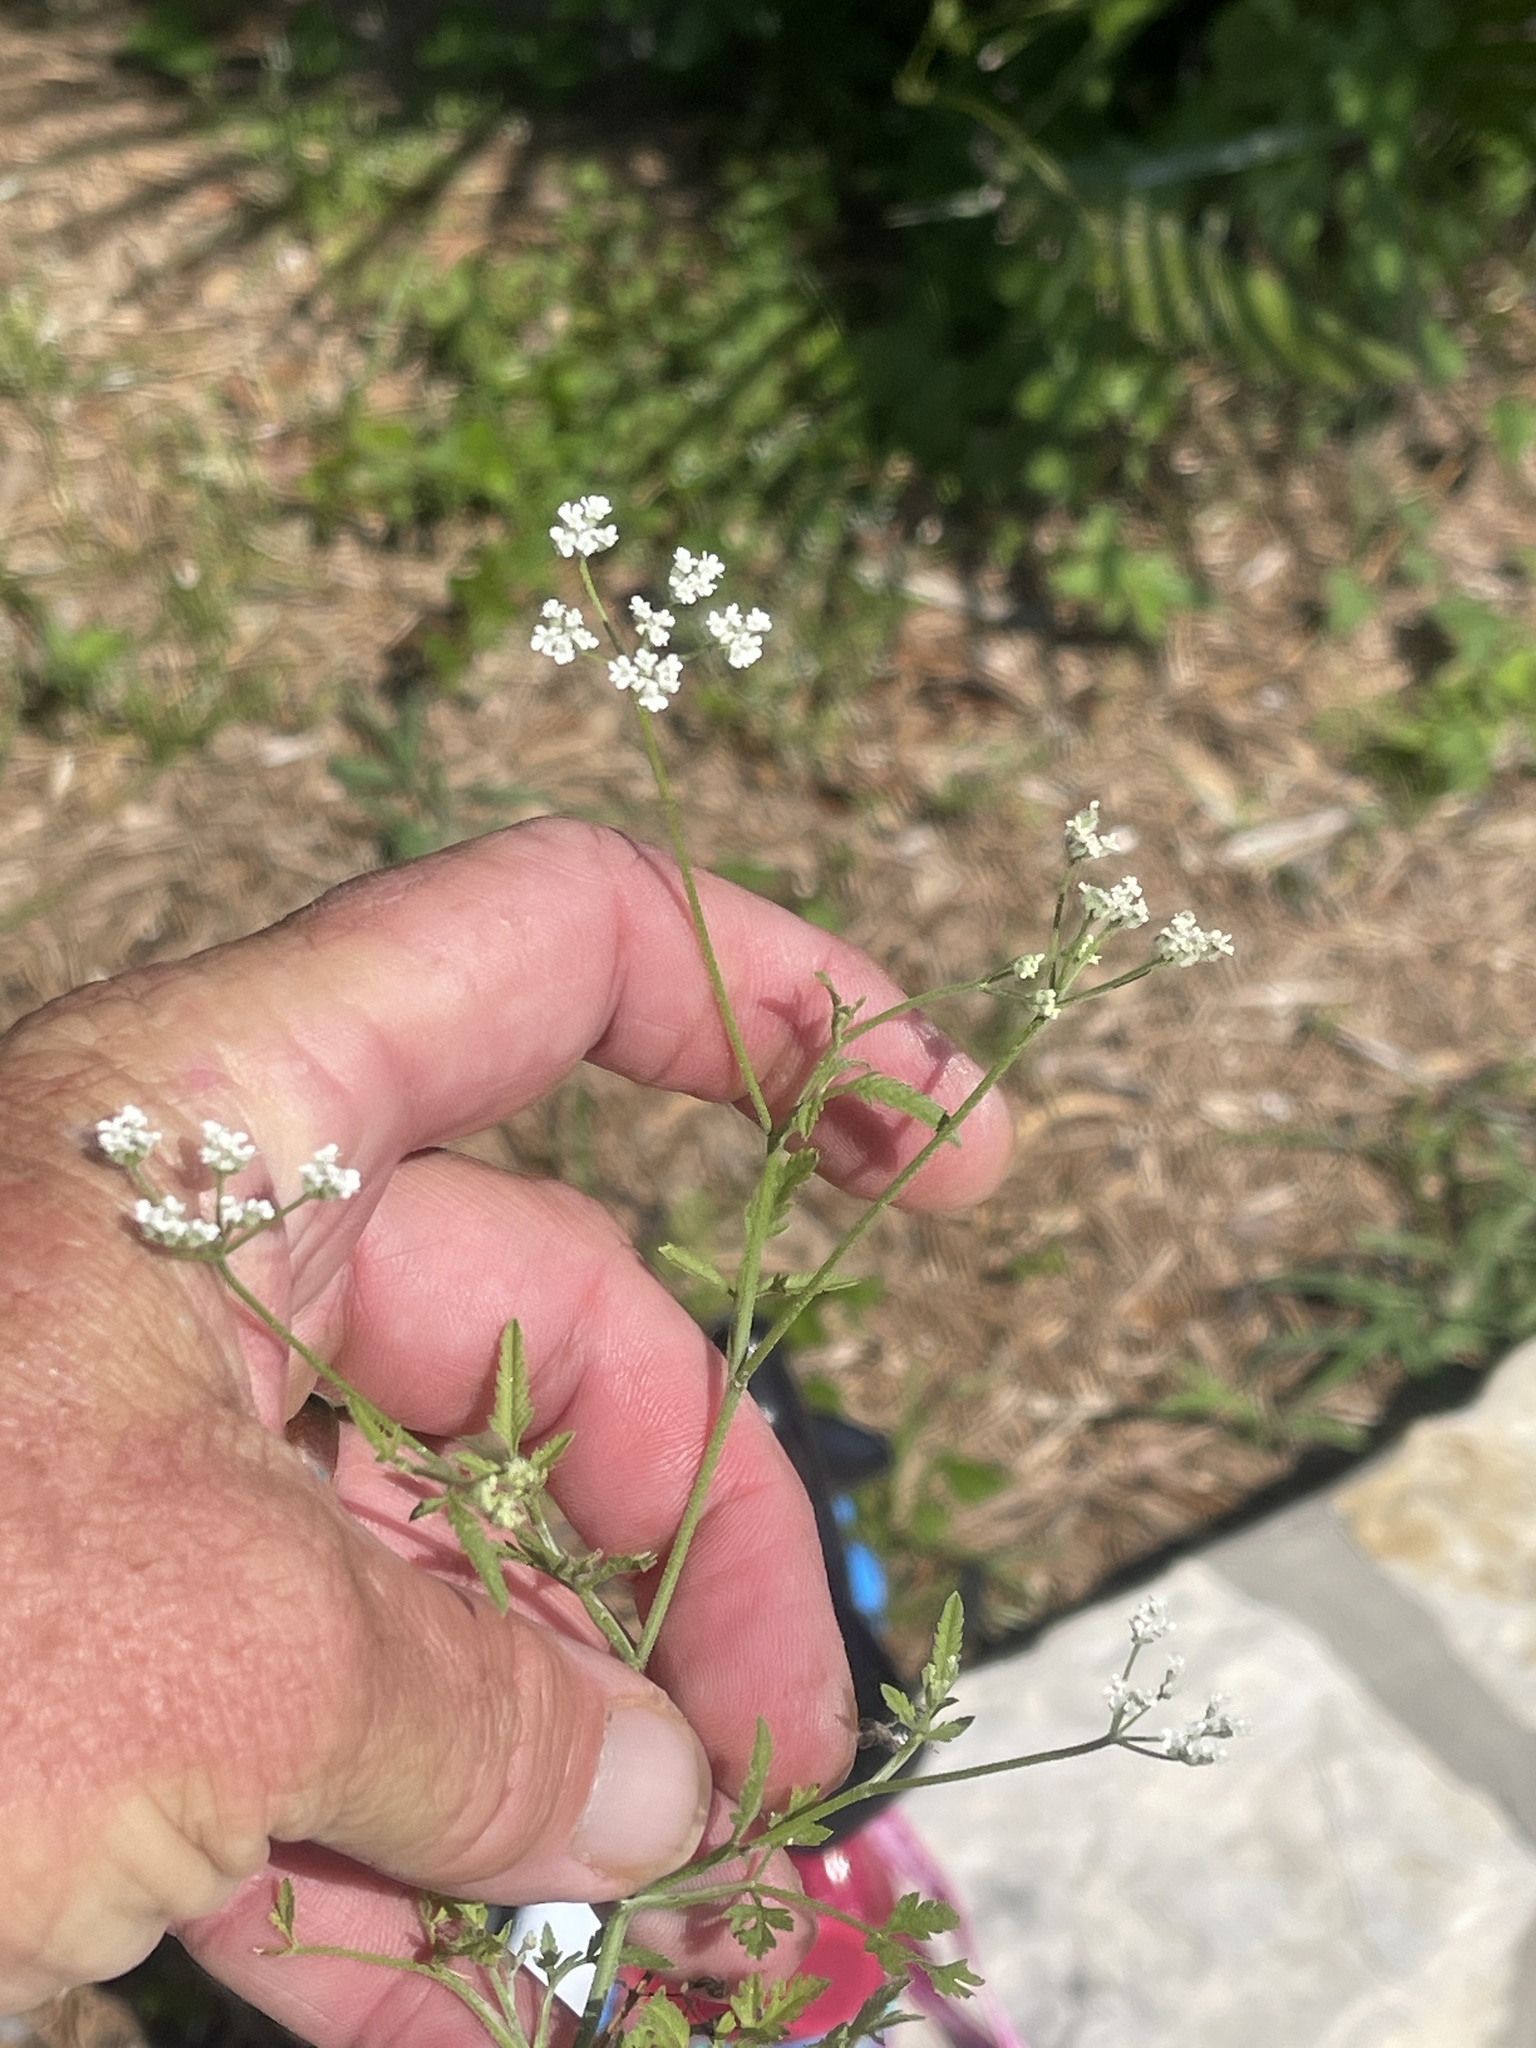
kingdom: Plantae
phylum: Tracheophyta
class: Magnoliopsida
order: Apiales
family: Apiaceae
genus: Torilis
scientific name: Torilis arvensis
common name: Spreading hedge-parsley
